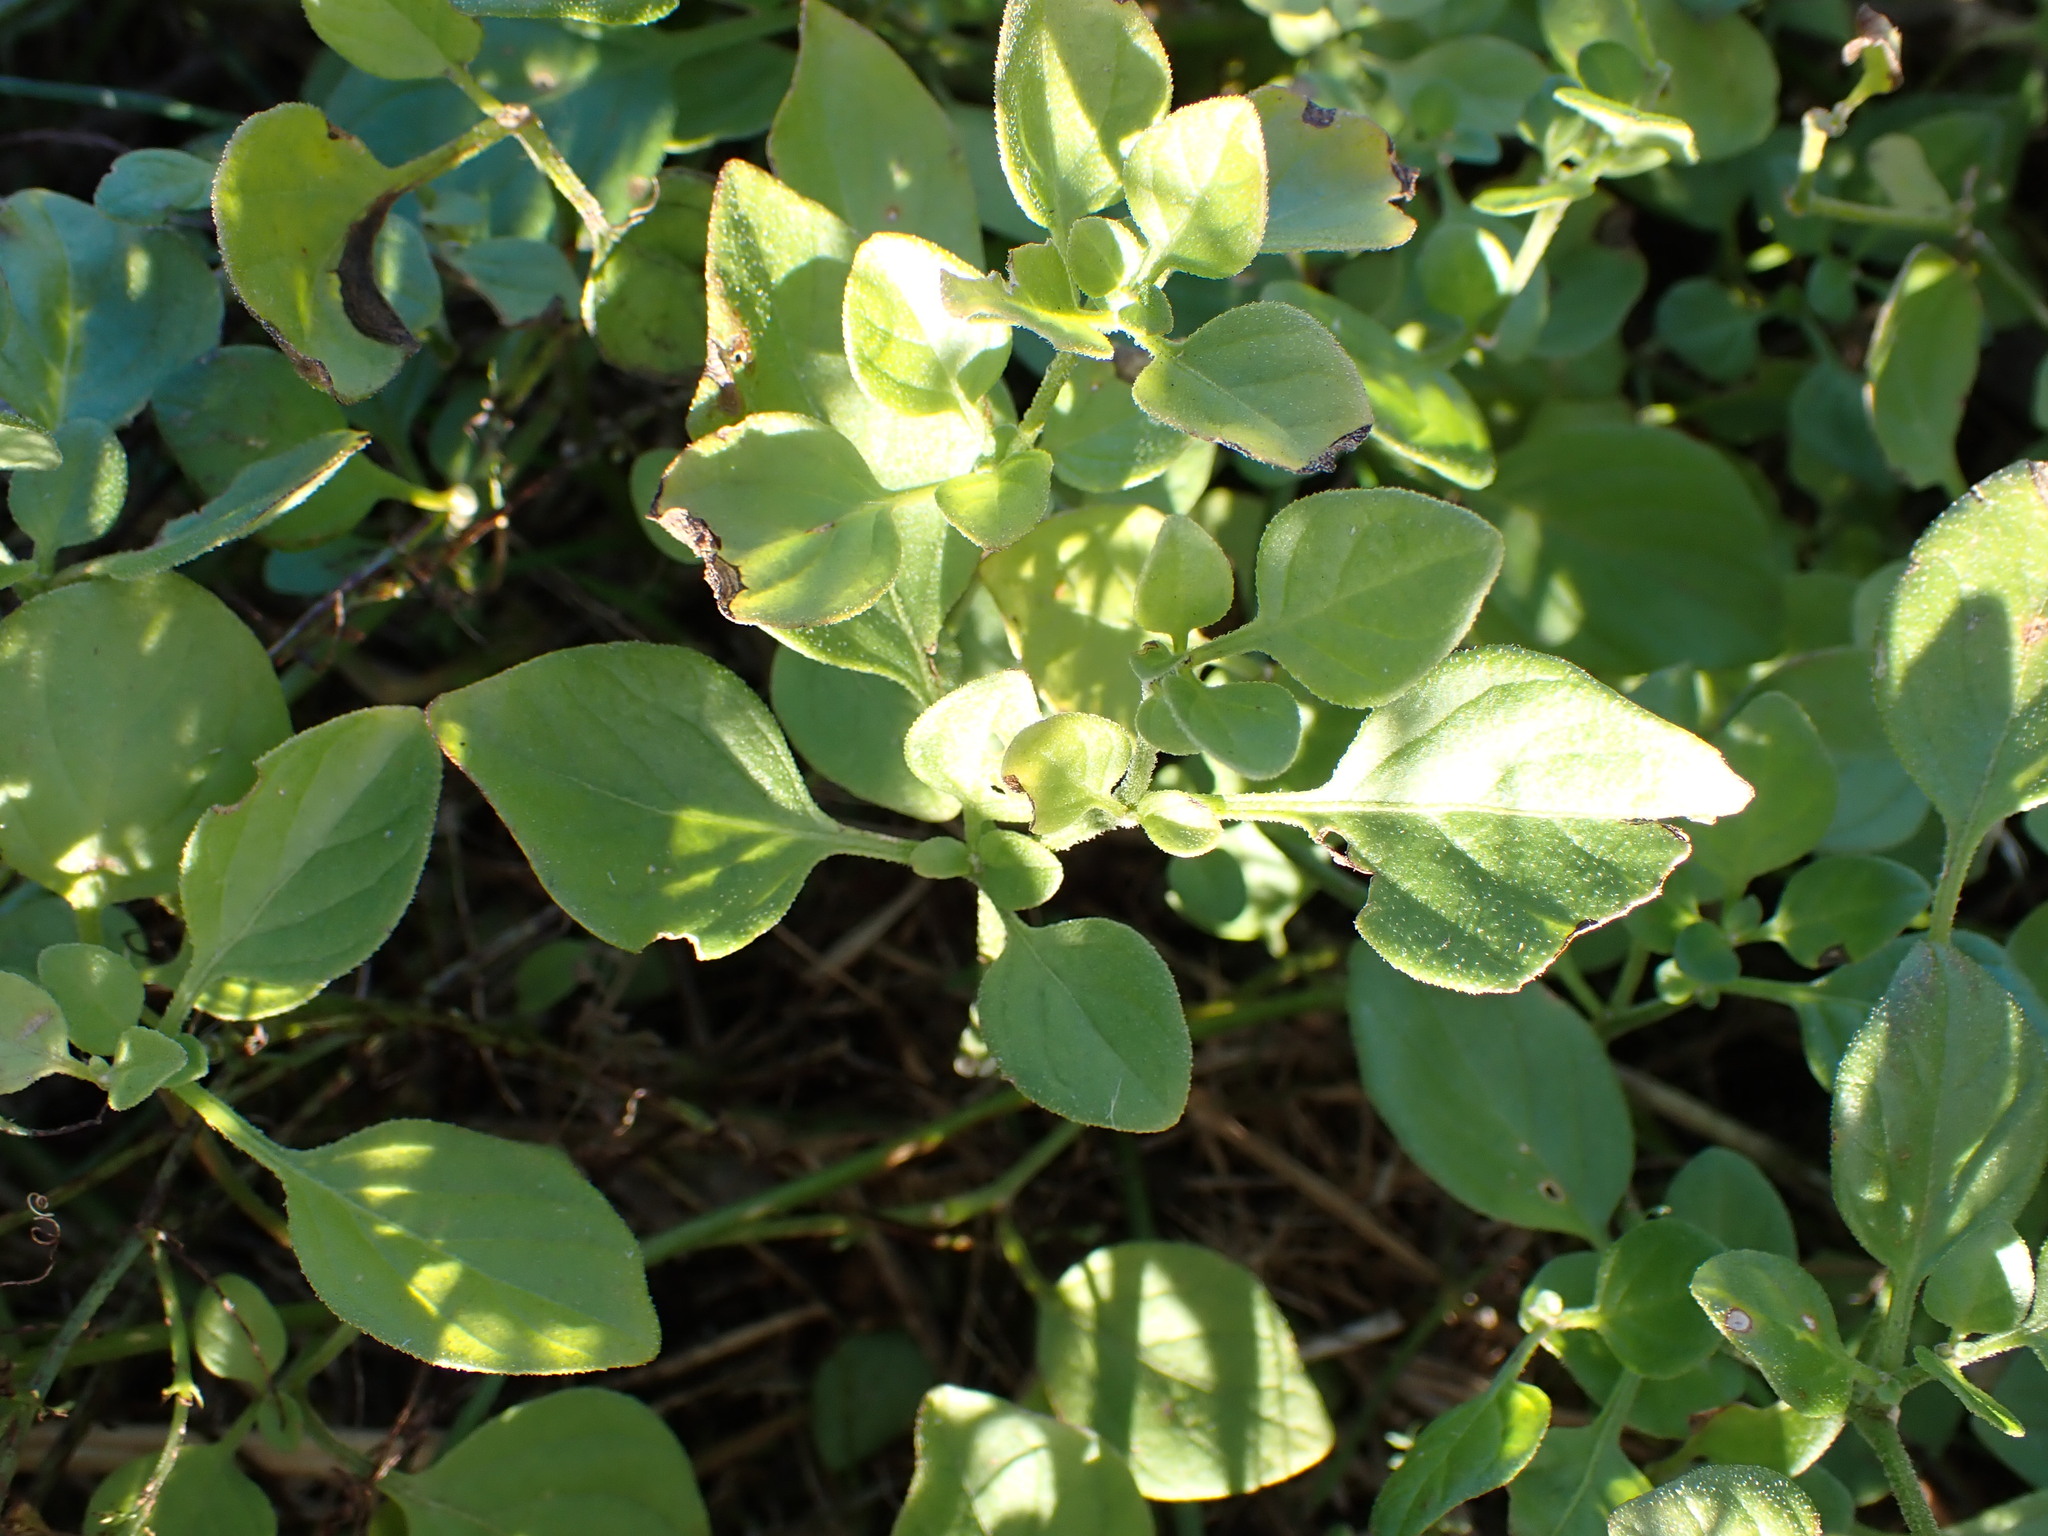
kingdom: Plantae
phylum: Tracheophyta
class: Magnoliopsida
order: Solanales
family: Solanaceae
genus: Salpichroa
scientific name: Salpichroa origanifolia
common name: Lily-of-the-valley-vine
